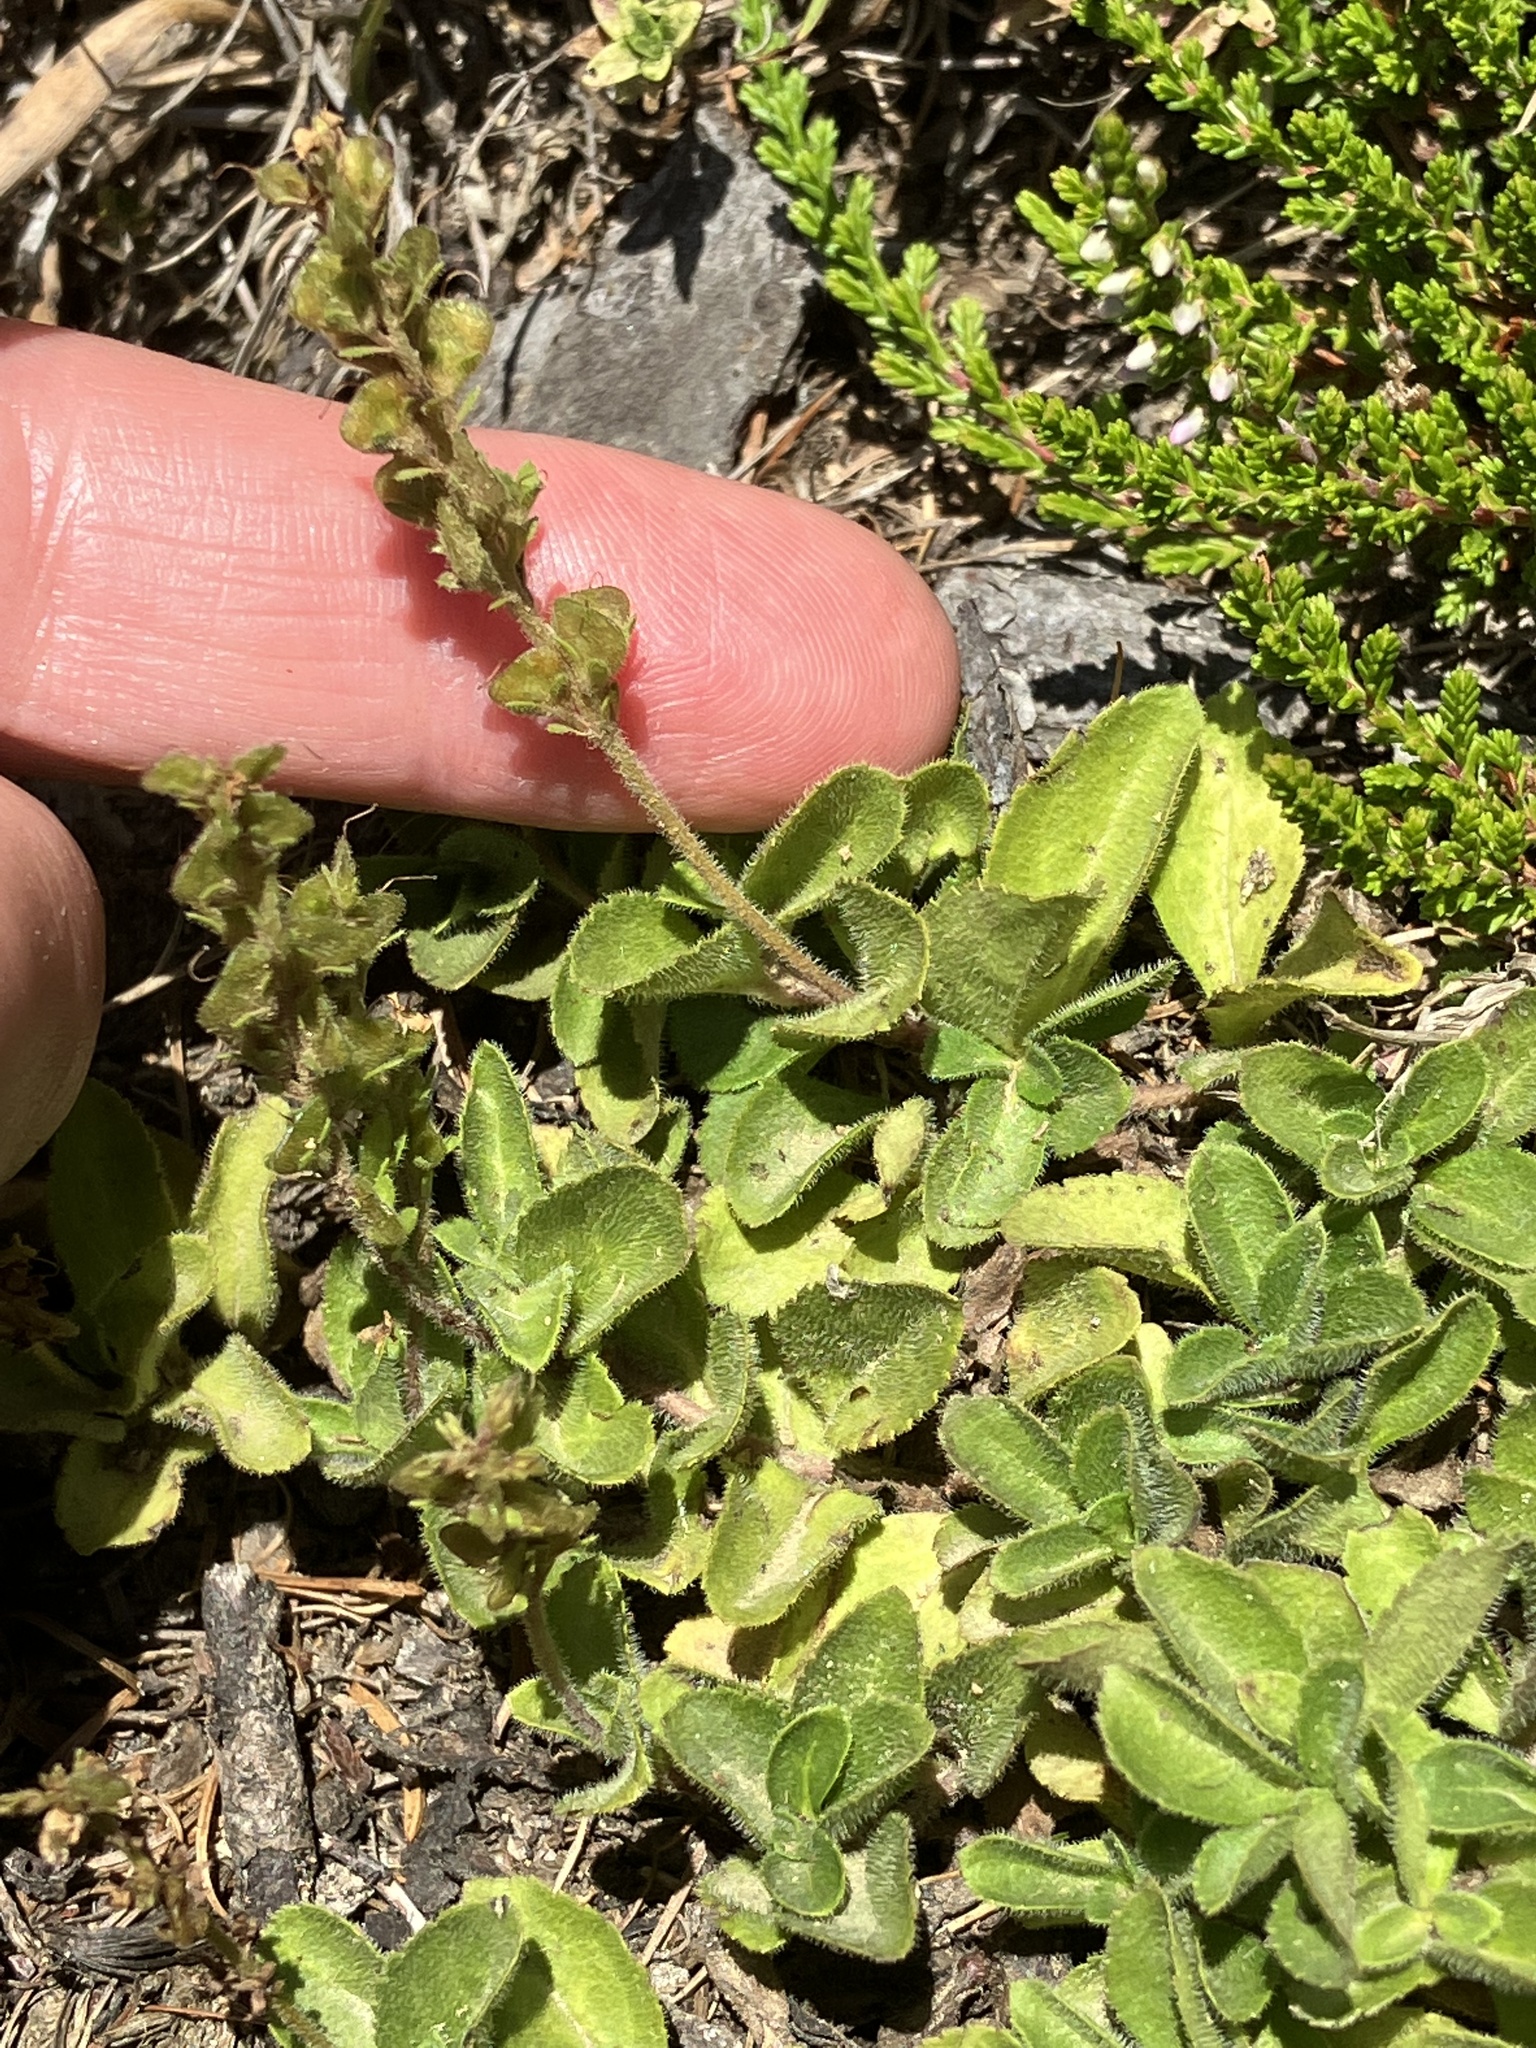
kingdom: Plantae
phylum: Tracheophyta
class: Magnoliopsida
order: Lamiales
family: Plantaginaceae
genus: Veronica
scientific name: Veronica officinalis
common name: Common speedwell
